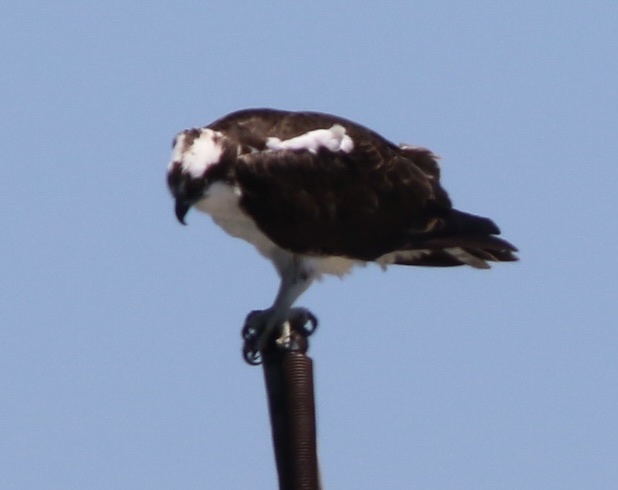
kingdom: Animalia
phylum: Chordata
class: Aves
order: Accipitriformes
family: Pandionidae
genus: Pandion
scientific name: Pandion haliaetus
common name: Osprey
